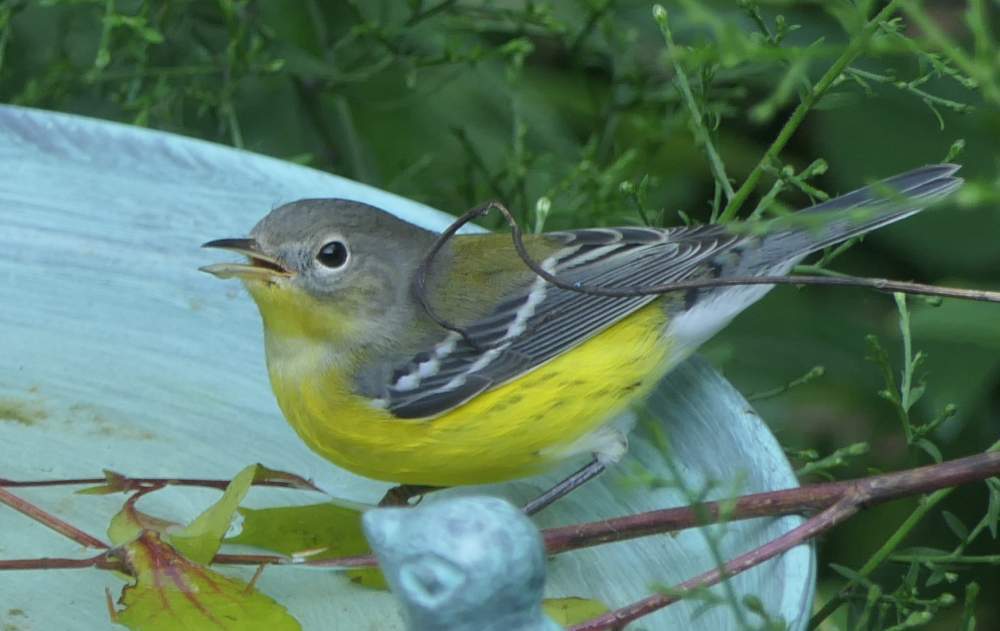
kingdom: Animalia
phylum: Chordata
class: Aves
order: Passeriformes
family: Parulidae
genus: Setophaga
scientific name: Setophaga magnolia
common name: Magnolia warbler
